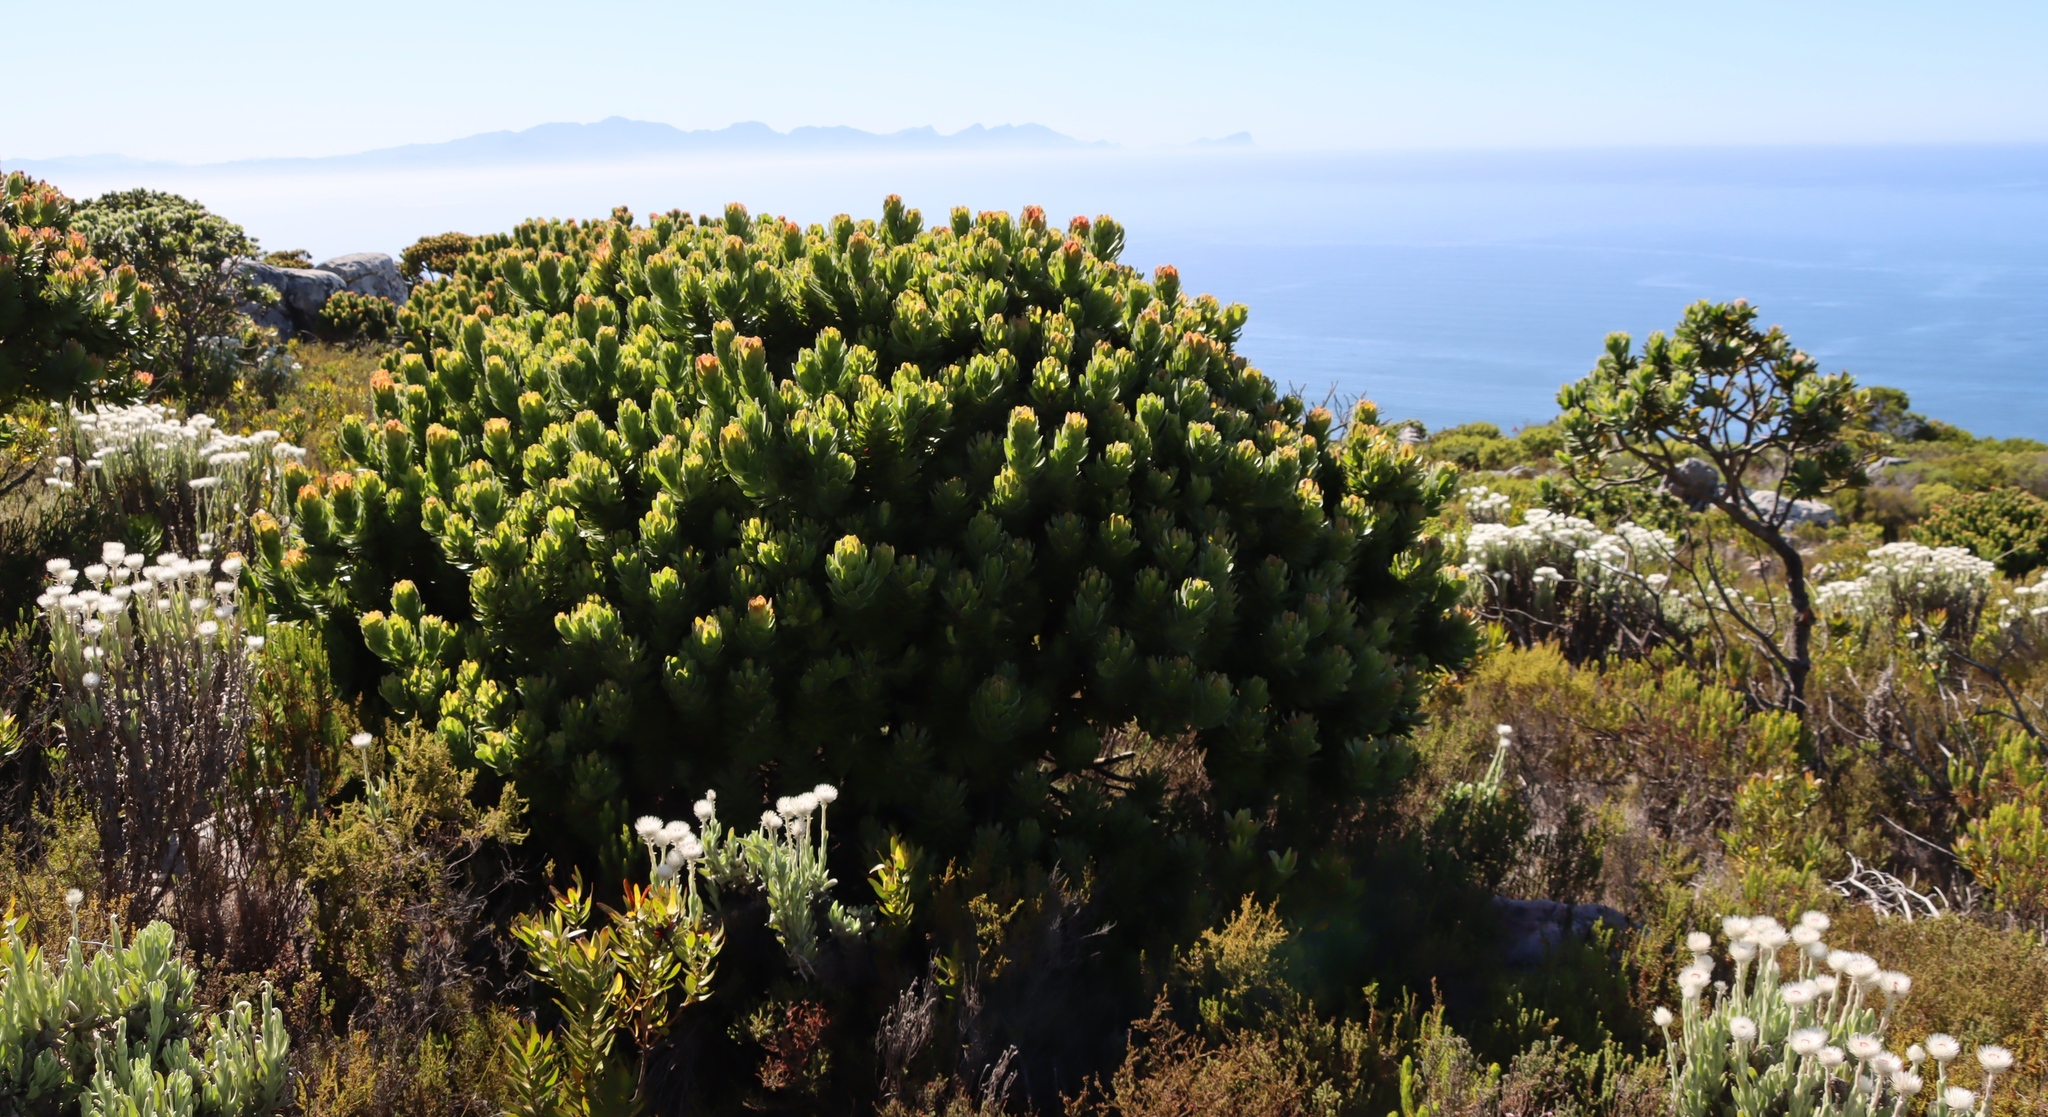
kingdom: Plantae
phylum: Tracheophyta
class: Magnoliopsida
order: Proteales
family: Proteaceae
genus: Mimetes
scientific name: Mimetes fimbriifolius
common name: Fringed bottlebrush
